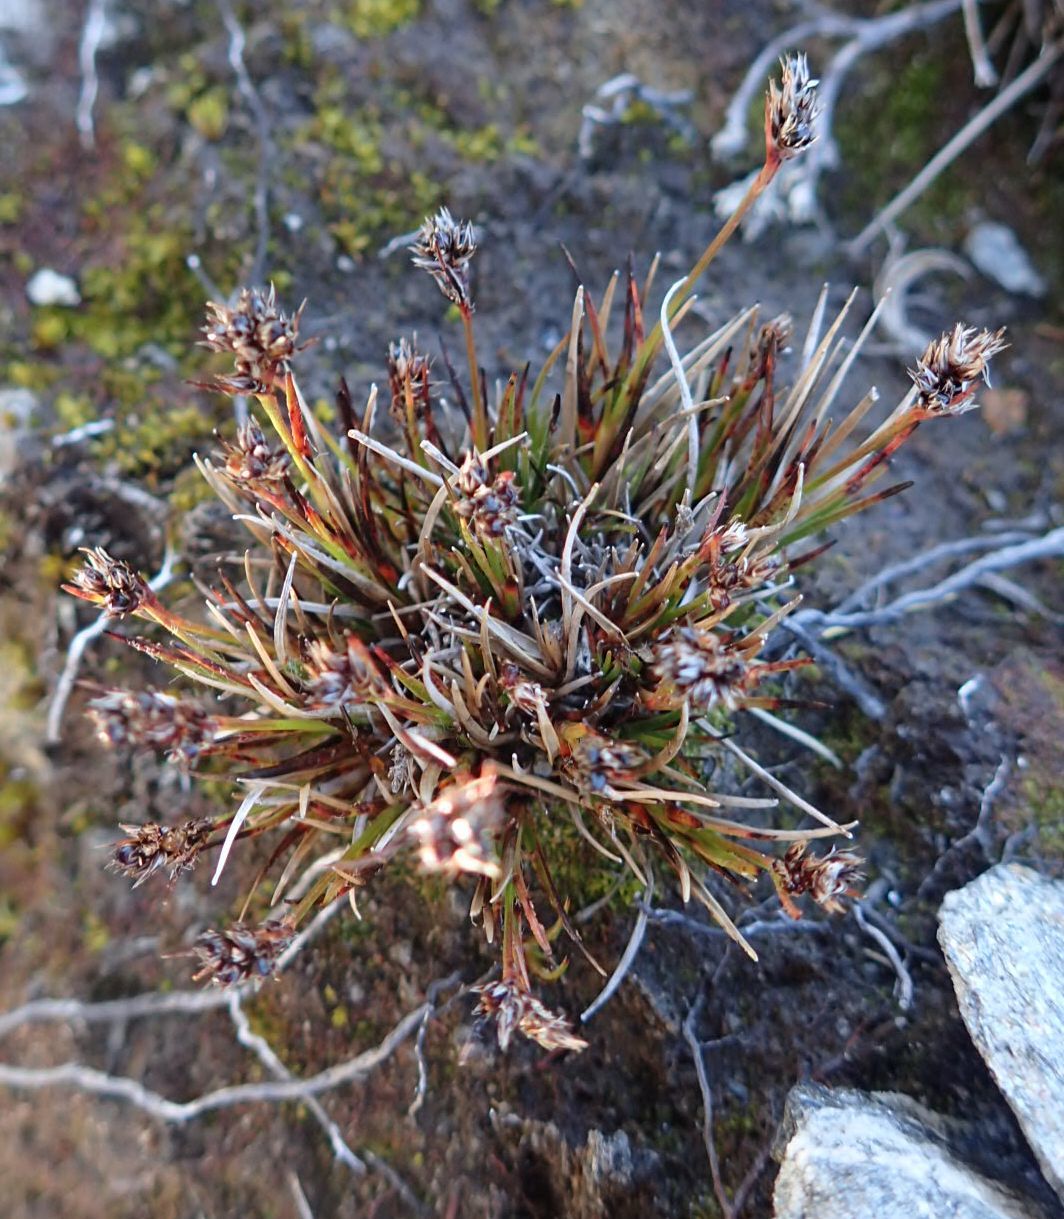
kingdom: Plantae
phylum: Tracheophyta
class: Liliopsida
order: Poales
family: Juncaceae
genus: Luzula
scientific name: Luzula pumila
